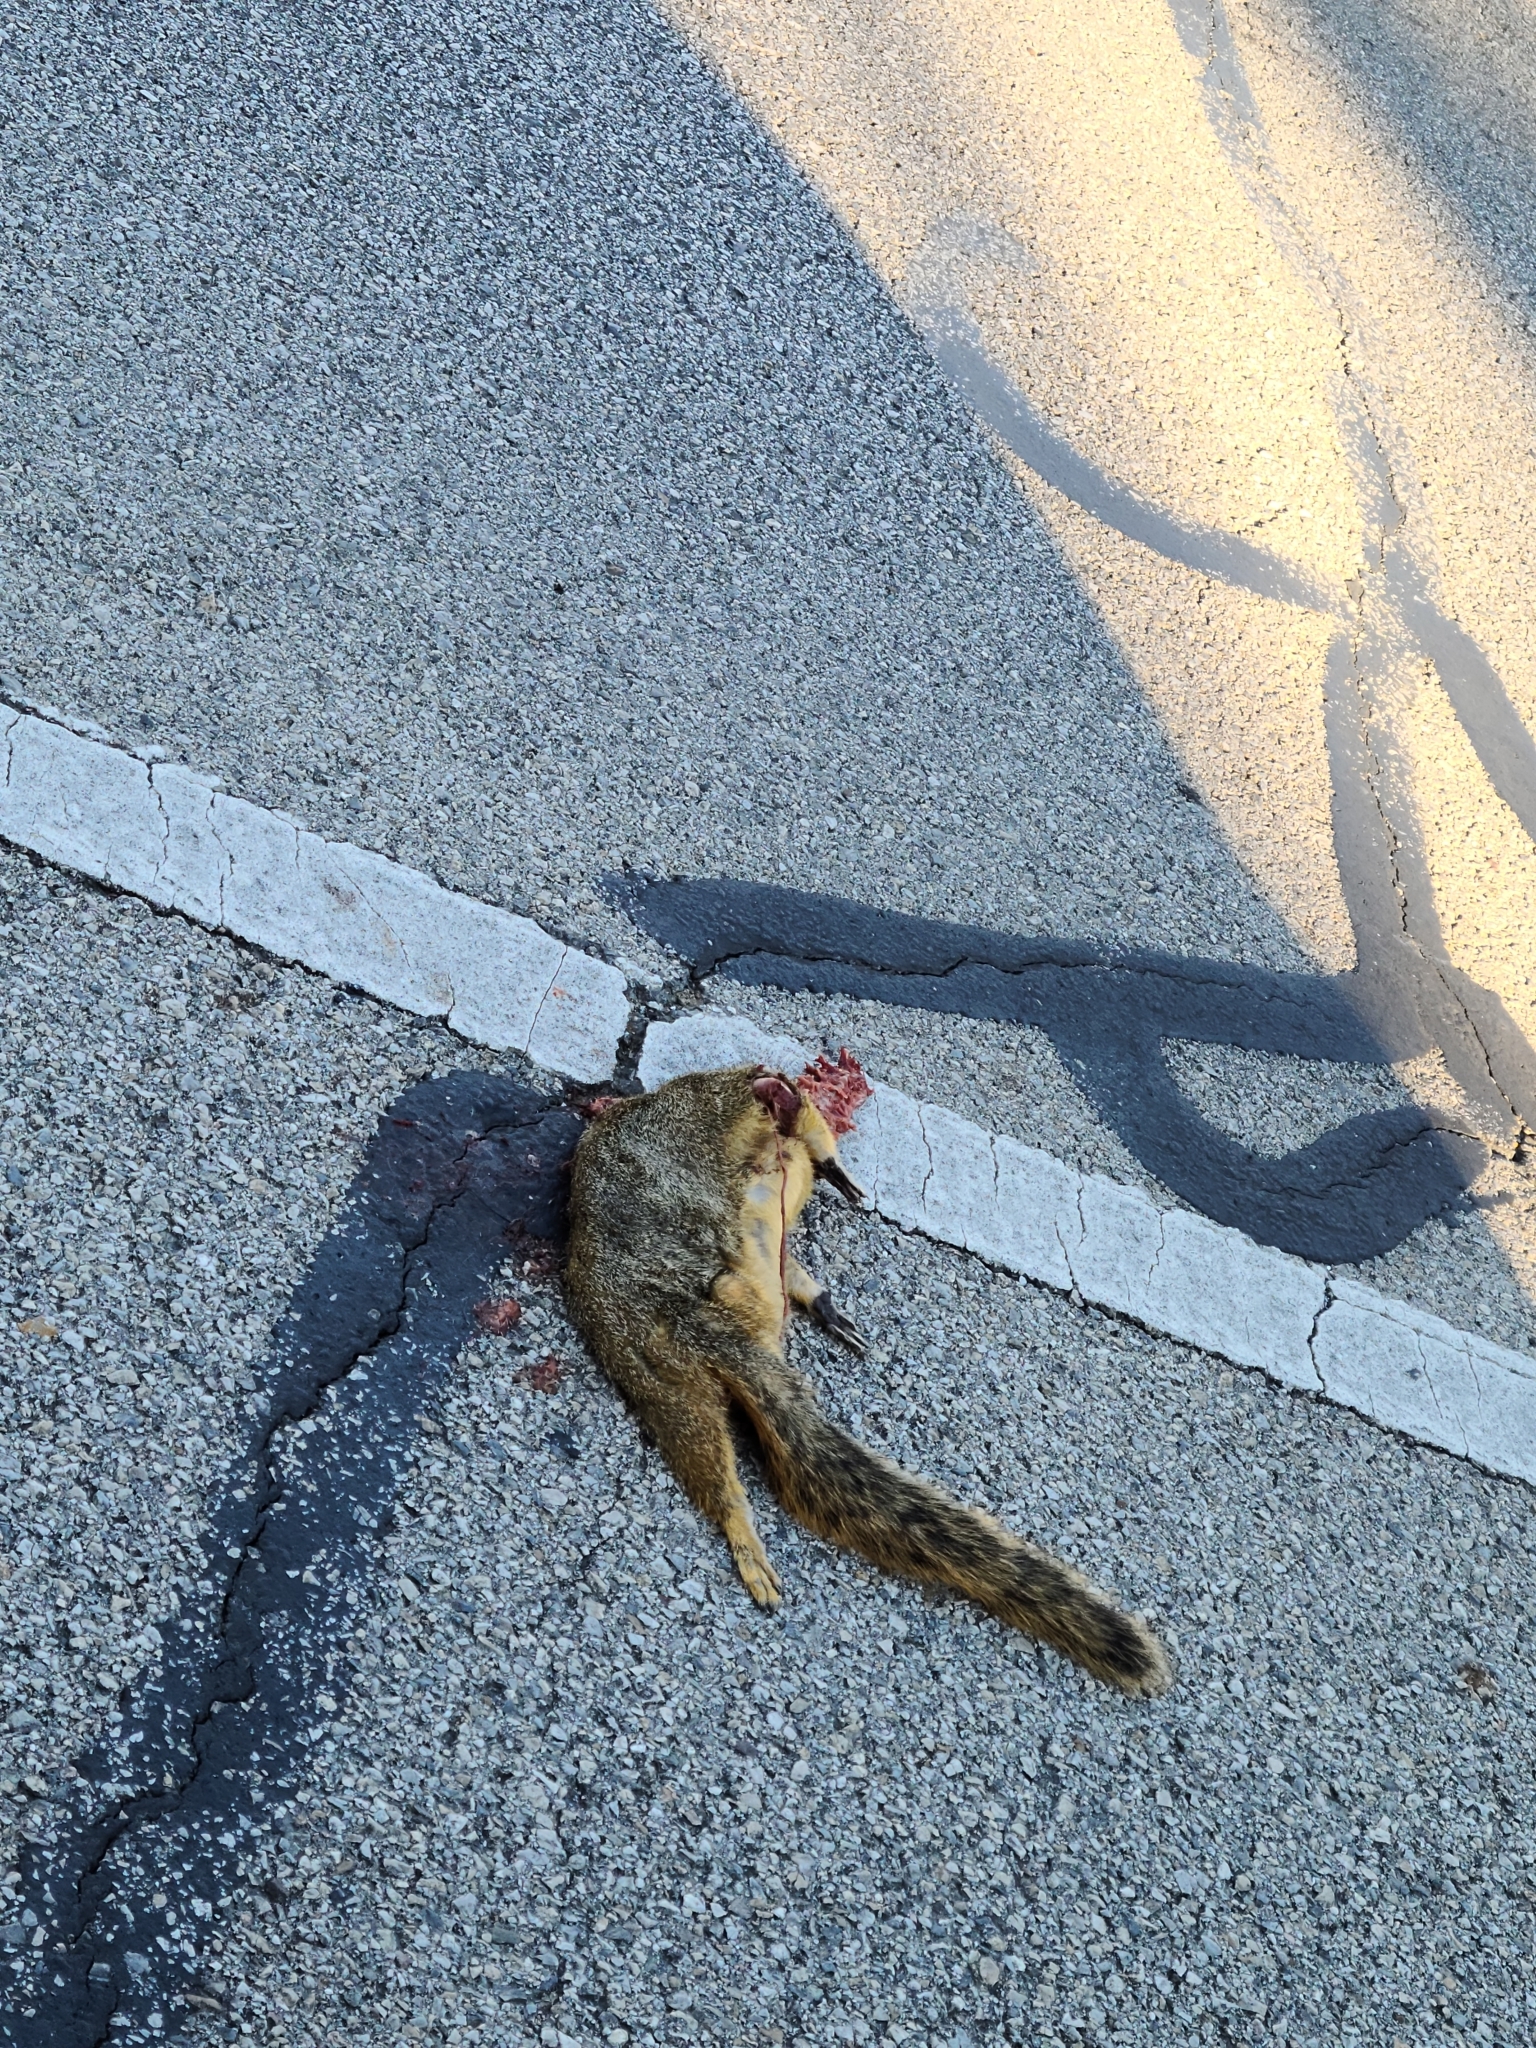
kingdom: Animalia
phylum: Chordata
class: Mammalia
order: Rodentia
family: Sciuridae
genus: Sciurus
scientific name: Sciurus niger
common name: Fox squirrel
